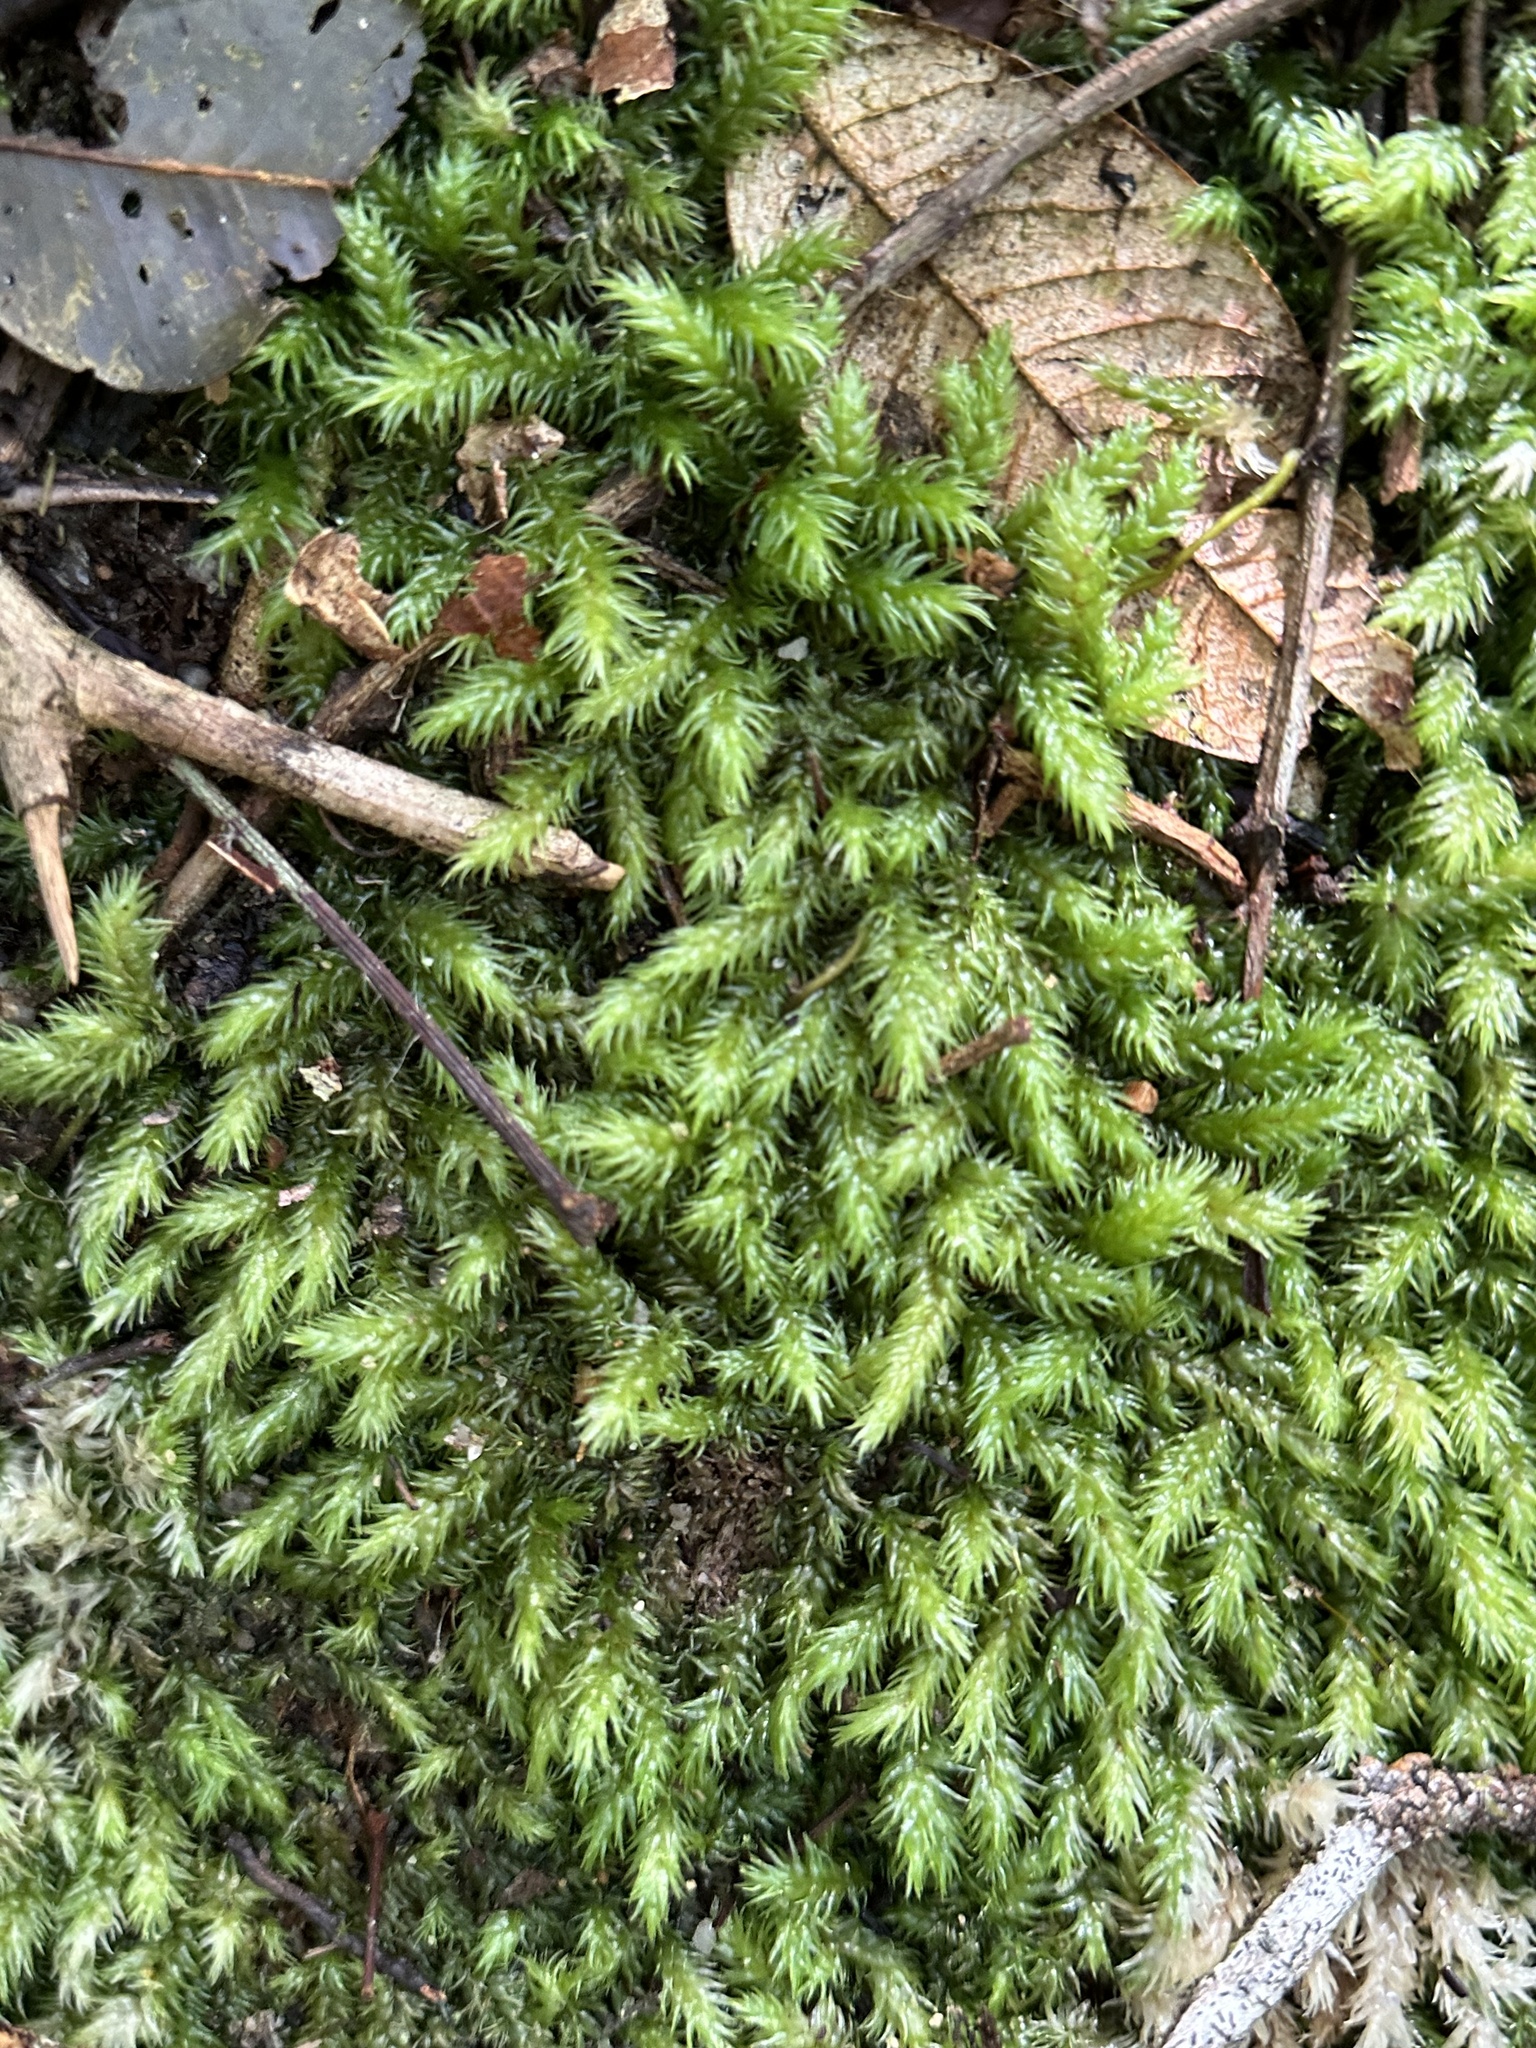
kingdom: Plantae
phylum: Bryophyta
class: Bryopsida
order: Dicranales
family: Leucobryaceae
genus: Leucobryum
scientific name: Leucobryum javense
